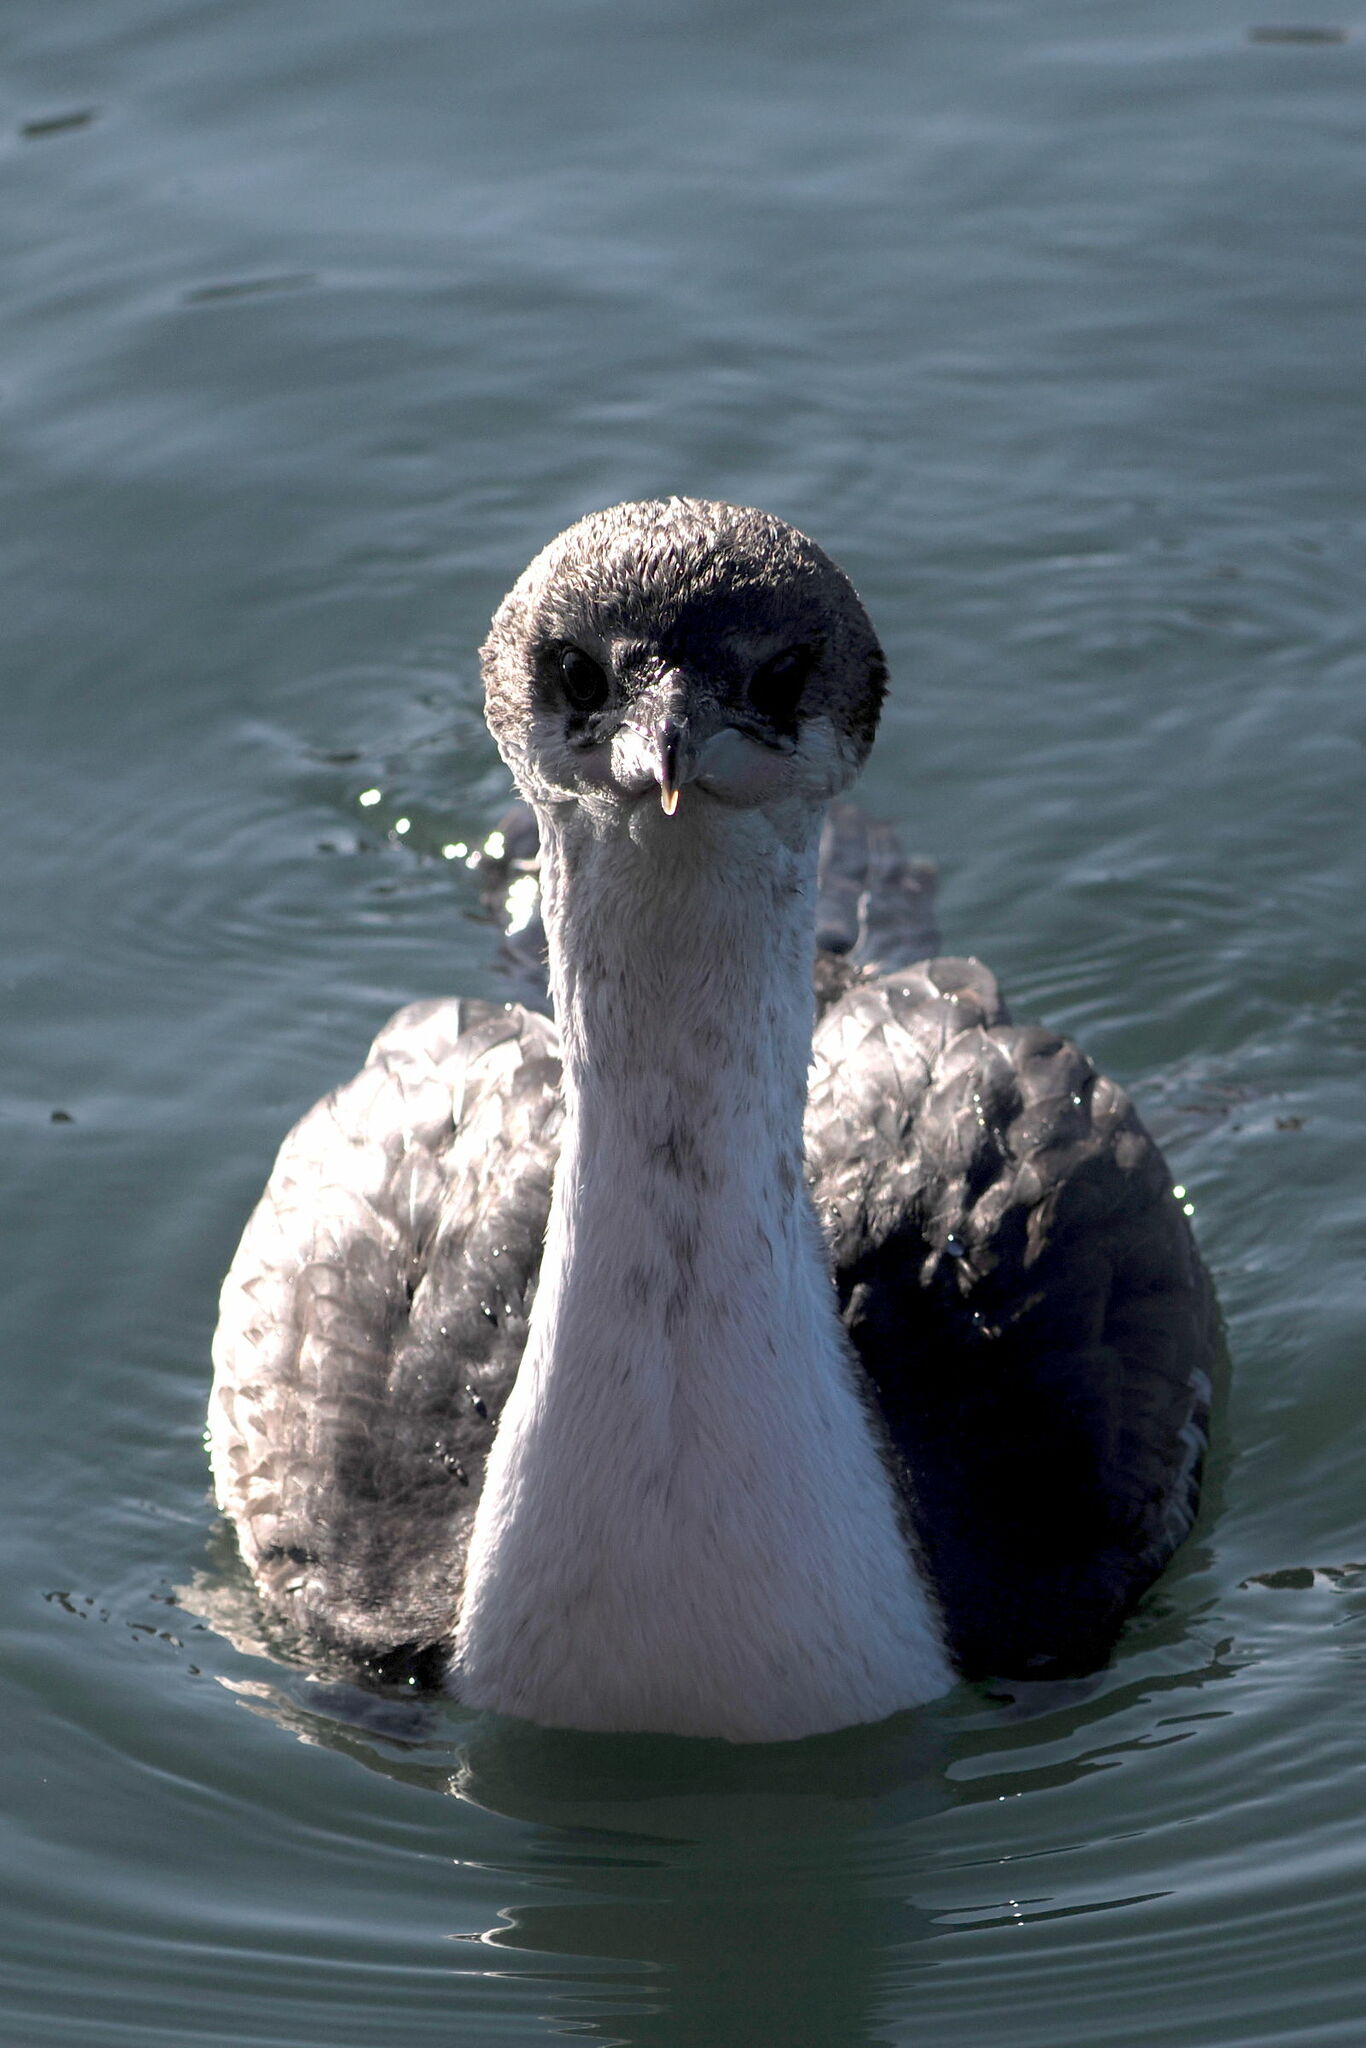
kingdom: Animalia
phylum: Chordata
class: Aves
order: Suliformes
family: Phalacrocoracidae
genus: Leucocarbo
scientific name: Leucocarbo atriceps
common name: Imperial shag
